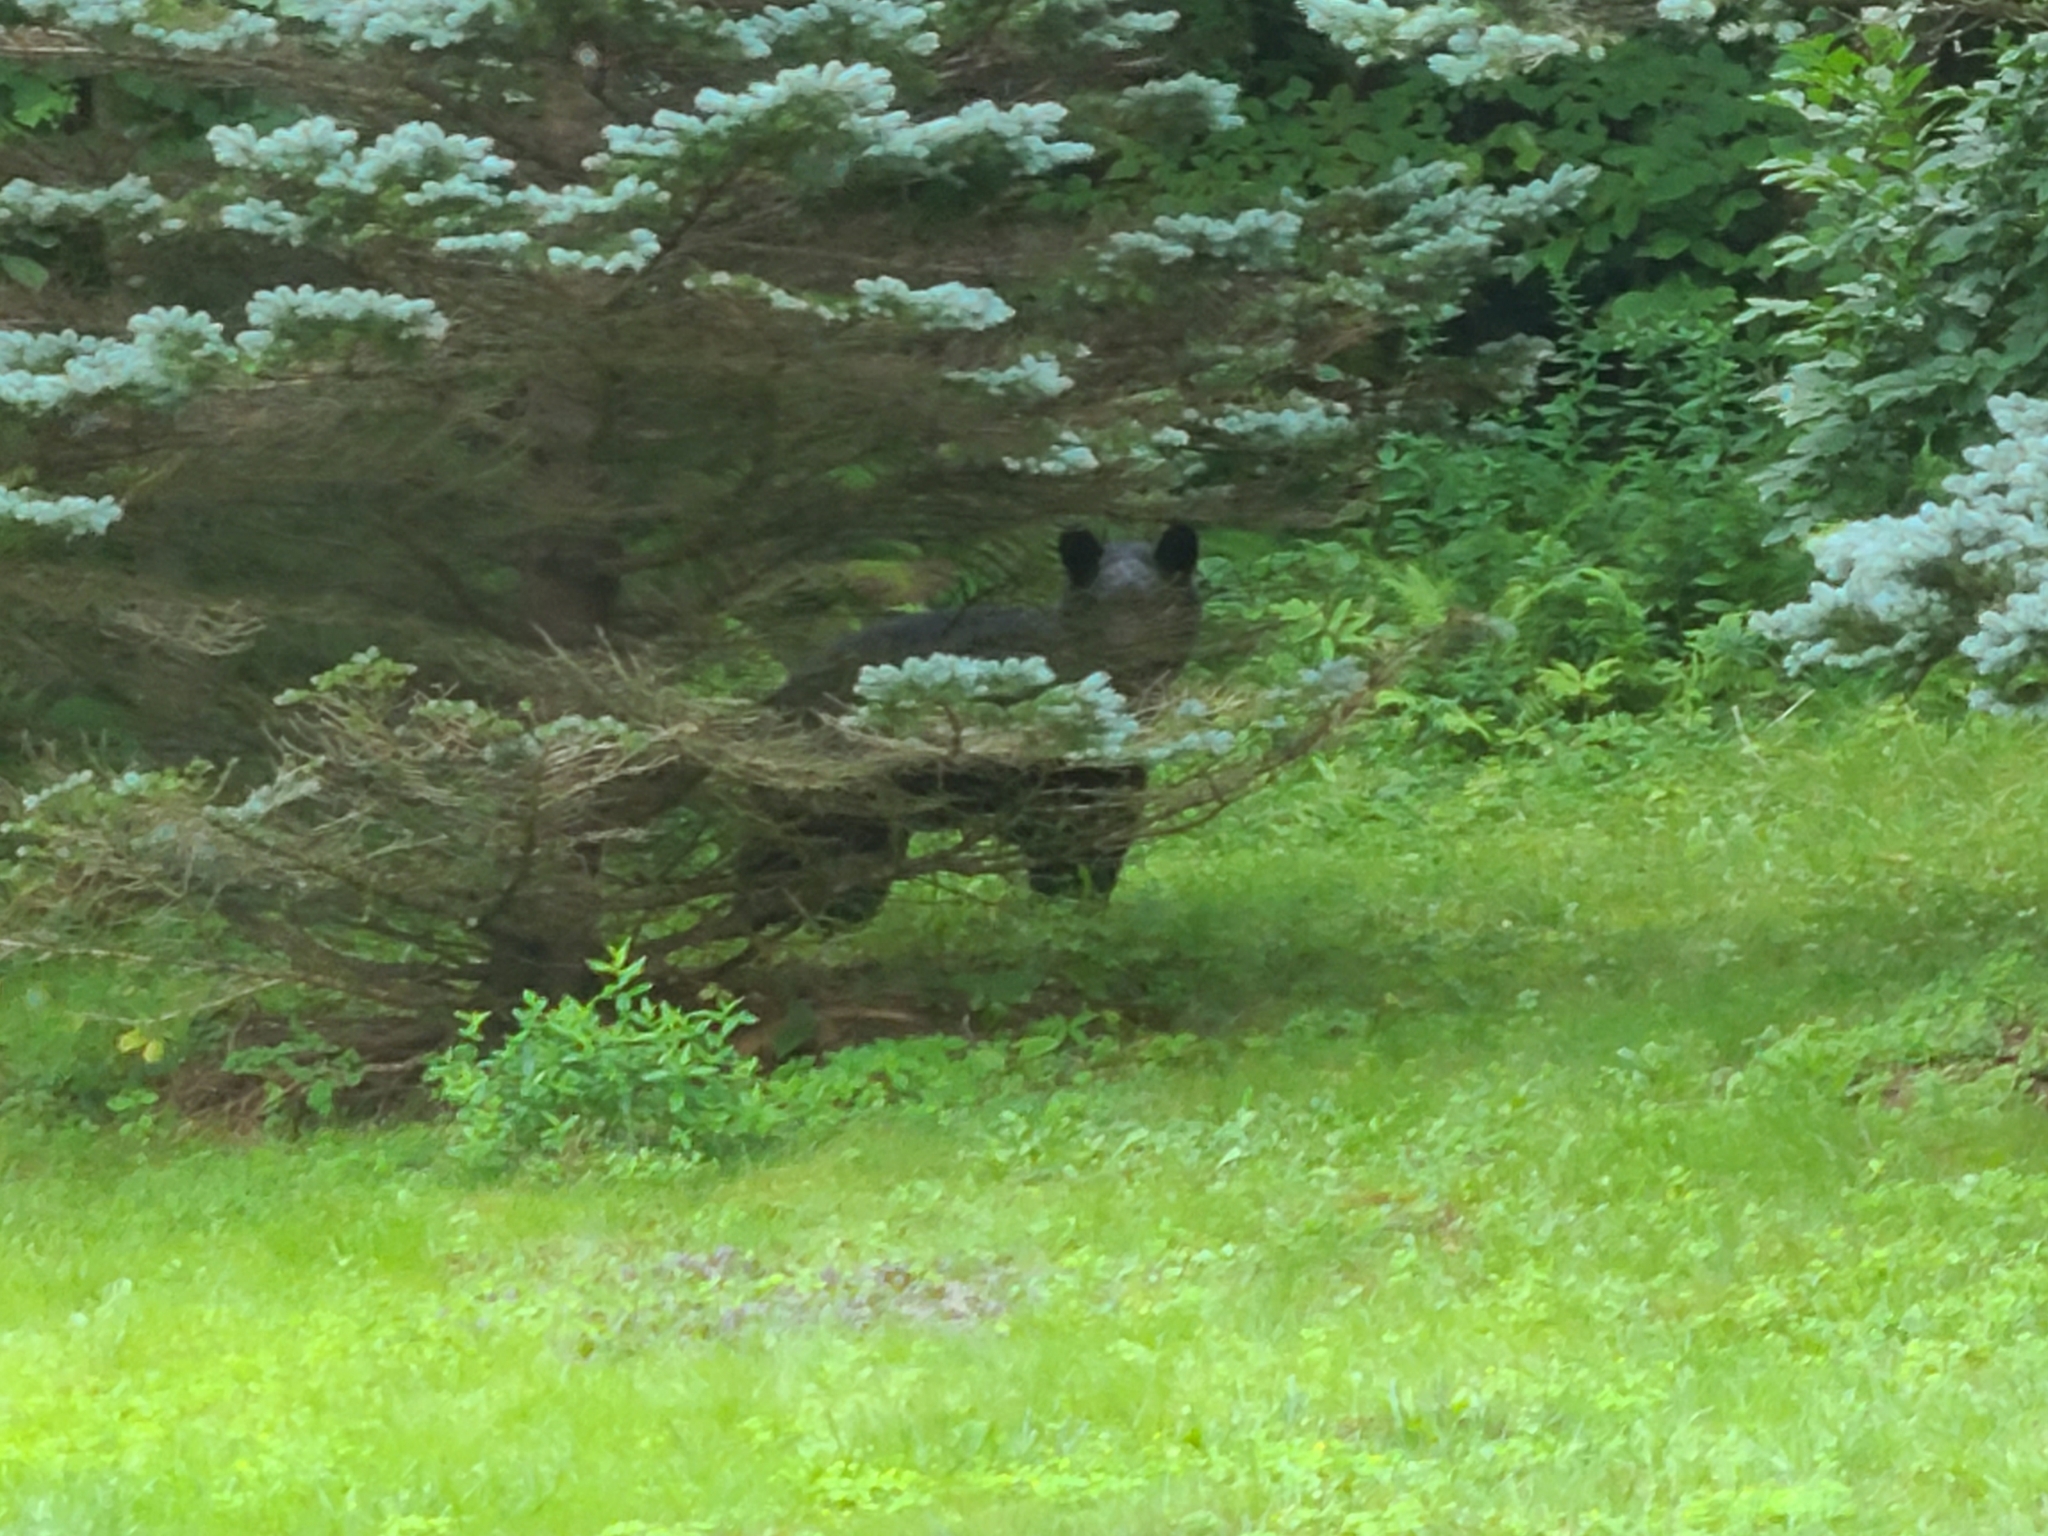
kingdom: Animalia
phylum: Chordata
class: Mammalia
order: Carnivora
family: Ursidae
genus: Ursus
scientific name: Ursus americanus
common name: American black bear
